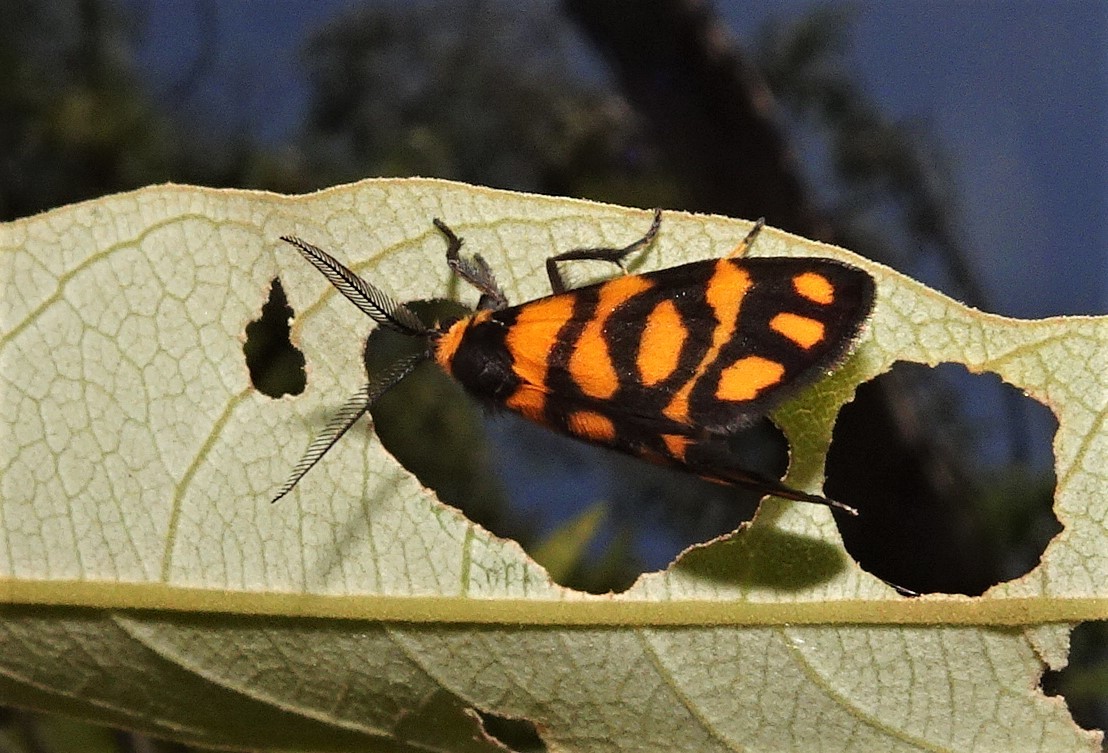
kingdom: Animalia
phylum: Arthropoda
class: Insecta
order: Lepidoptera
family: Erebidae
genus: Asura
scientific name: Asura lydia
